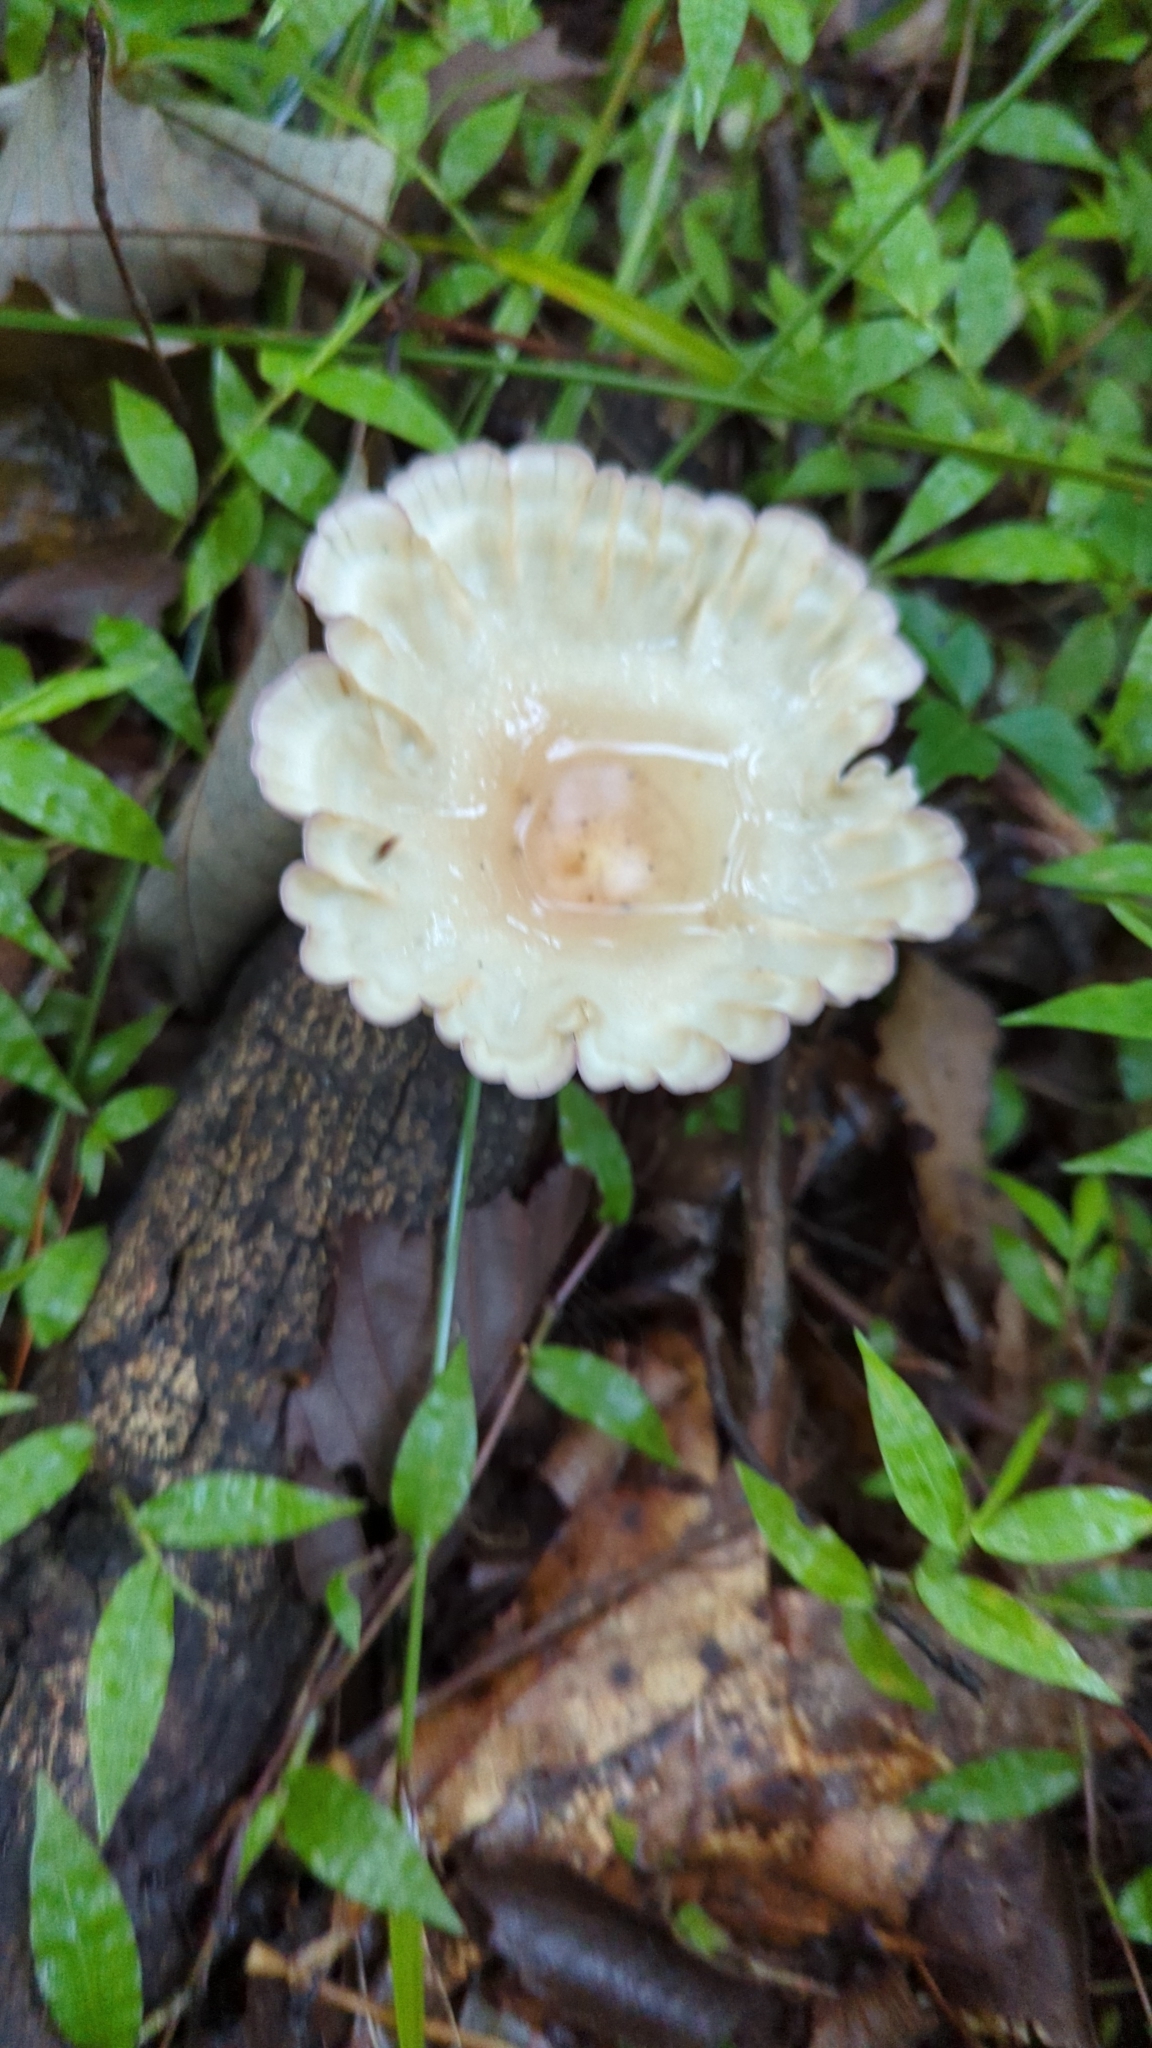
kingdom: Fungi
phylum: Basidiomycota
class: Agaricomycetes
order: Polyporales
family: Panaceae
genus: Cymatoderma
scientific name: Cymatoderma caperatum
